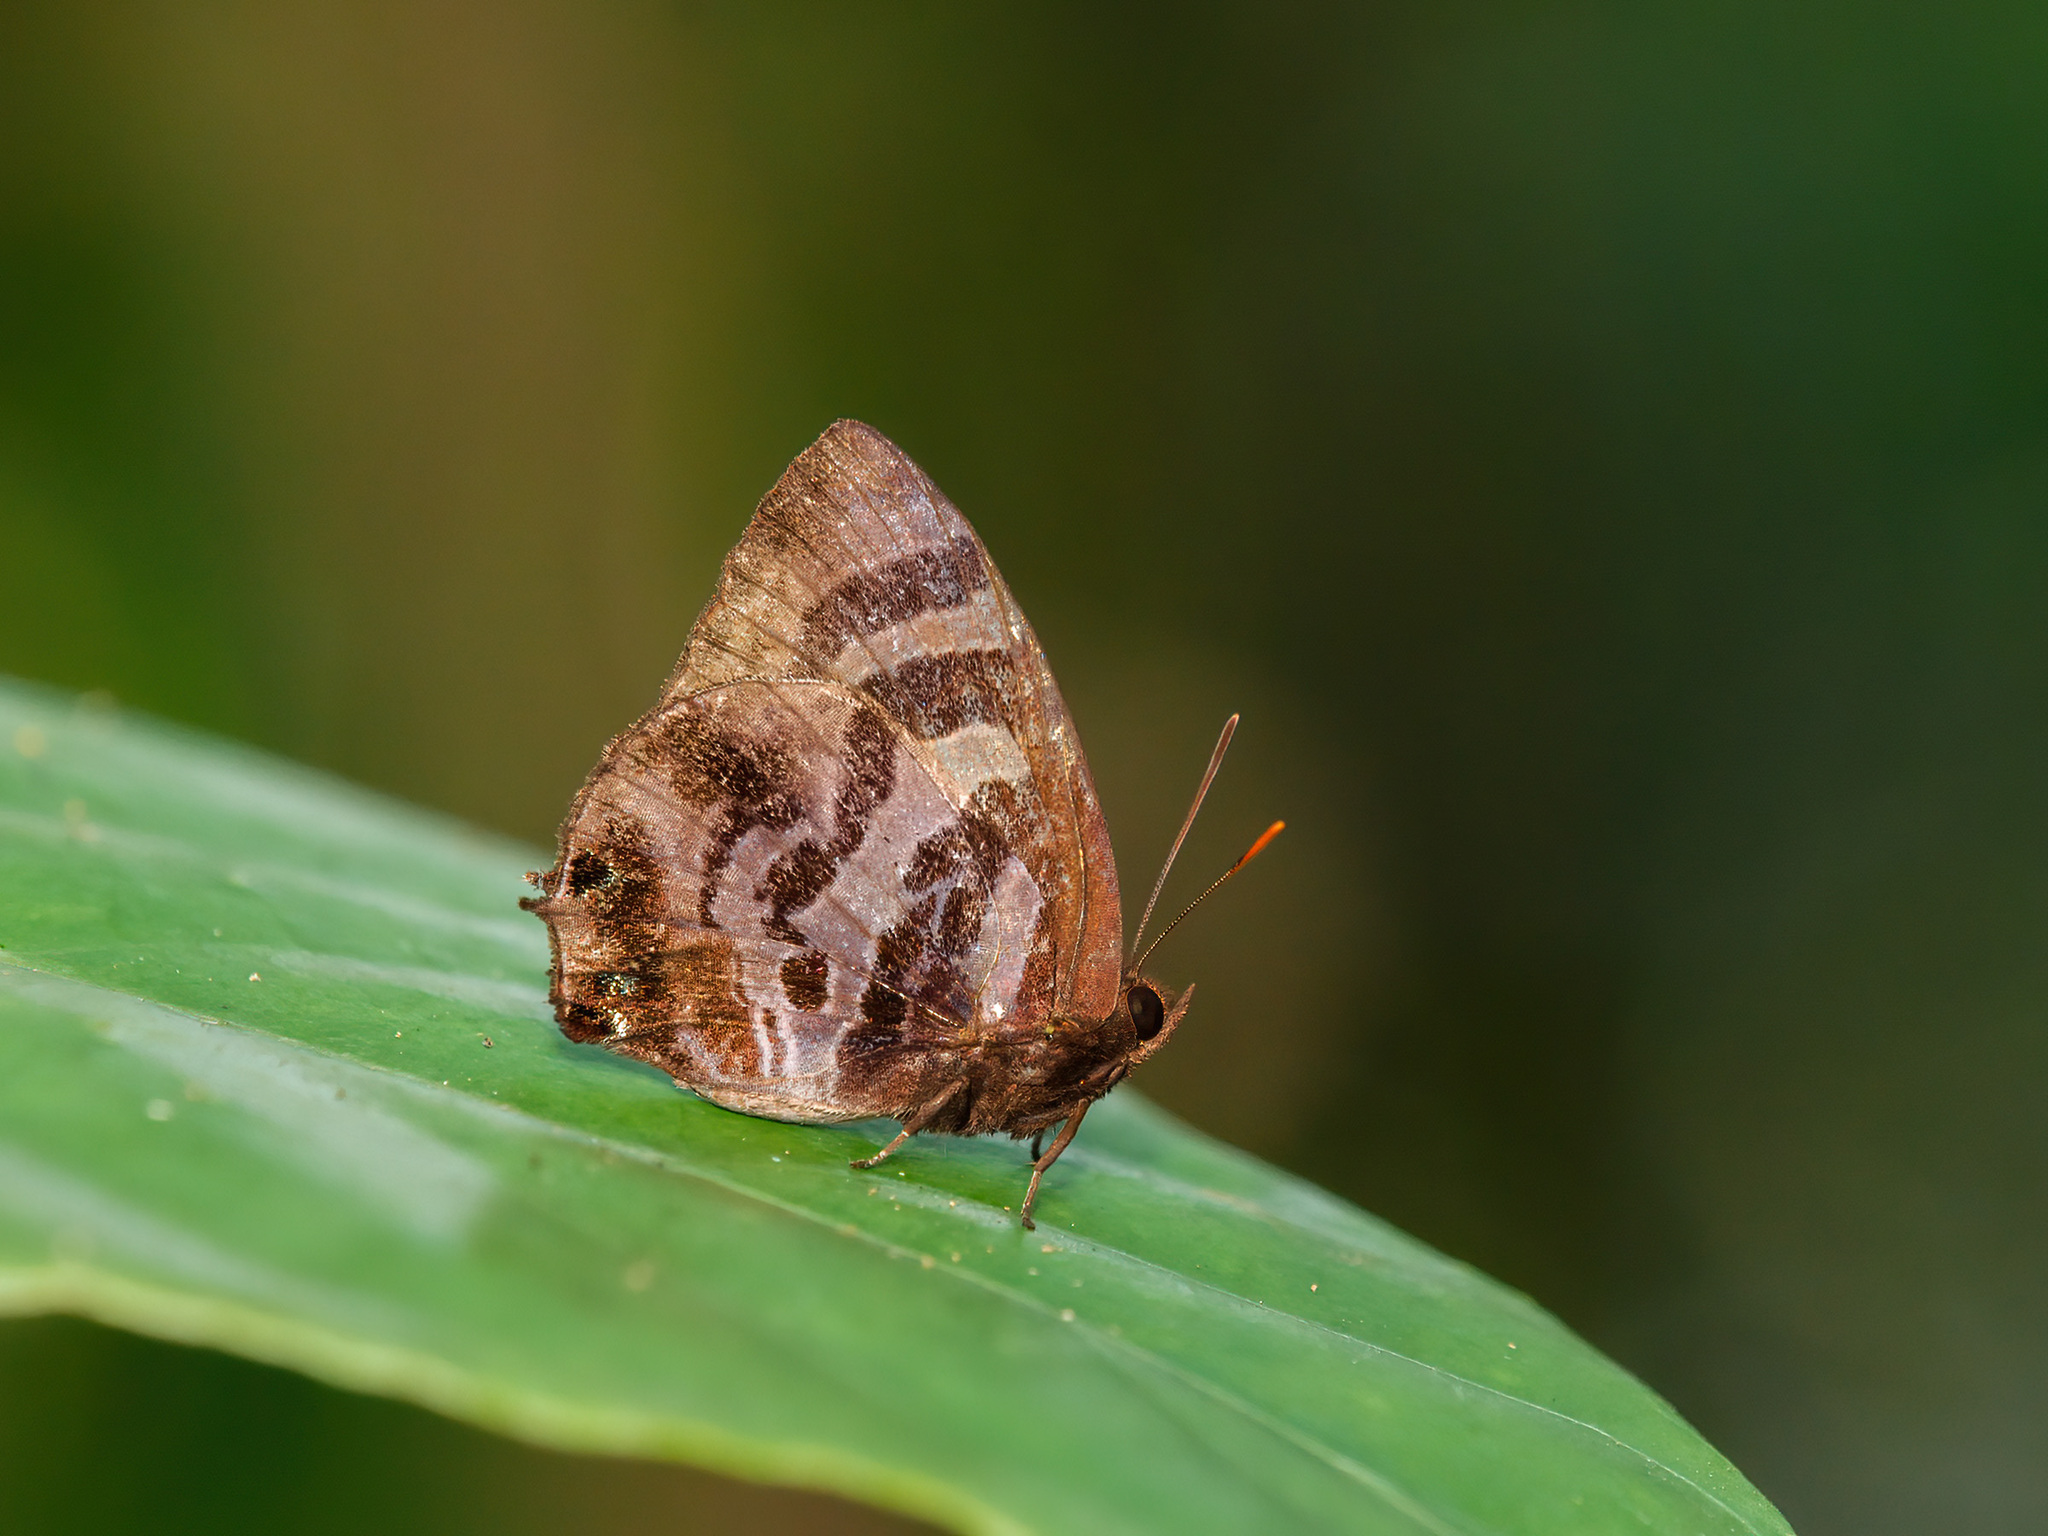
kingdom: Animalia
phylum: Arthropoda
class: Insecta
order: Lepidoptera
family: Lycaenidae
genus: Flos
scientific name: Flos
